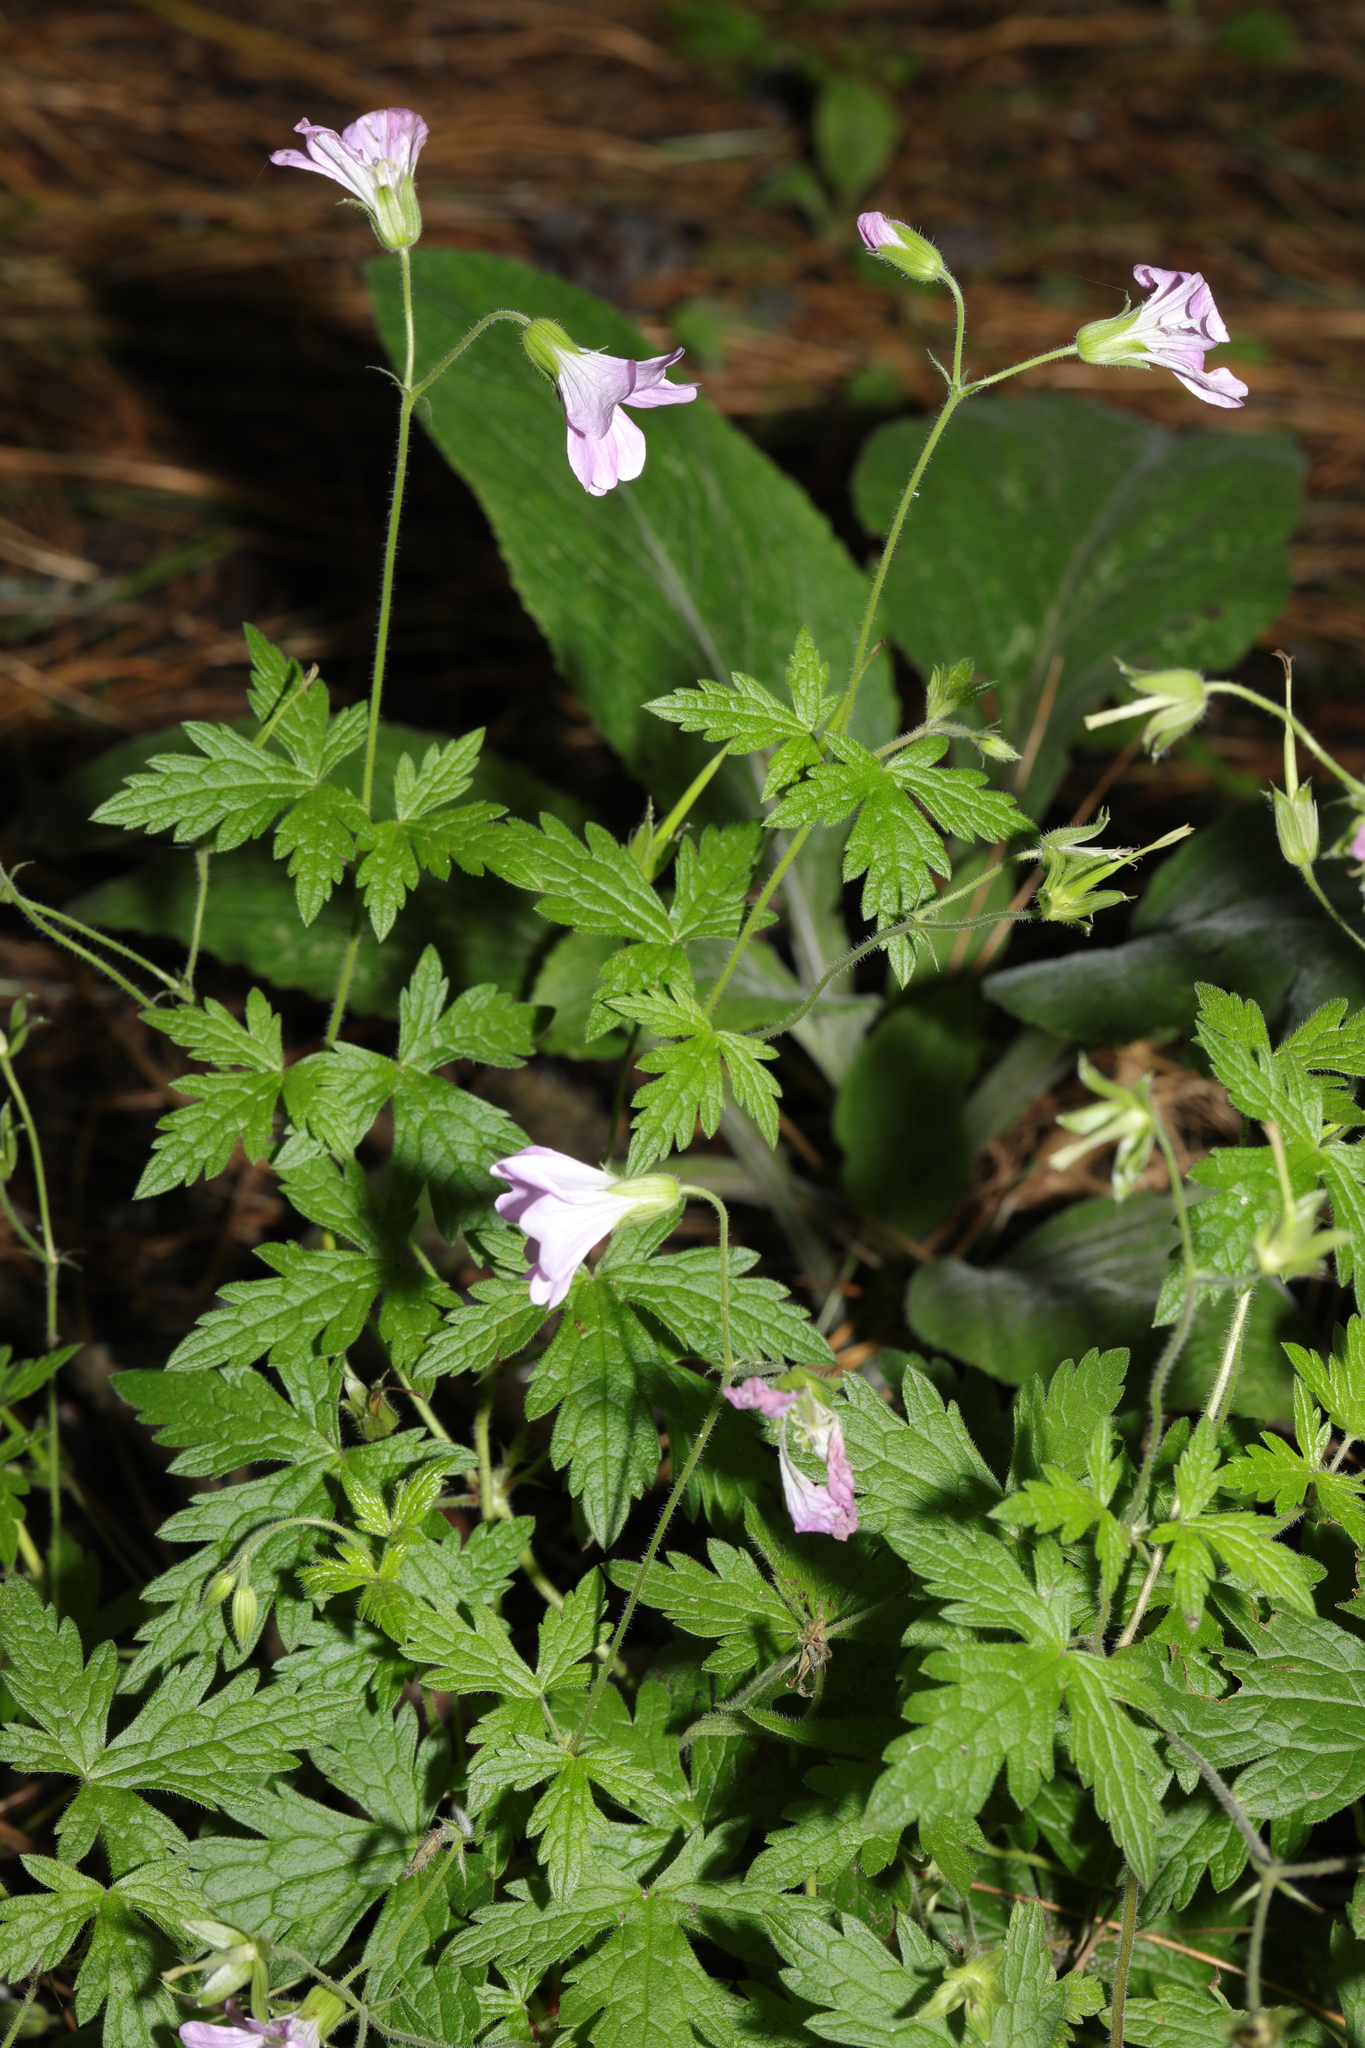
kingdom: Plantae
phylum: Tracheophyta
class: Magnoliopsida
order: Geraniales
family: Geraniaceae
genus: Geranium
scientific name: Geranium oxonianum
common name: Druce's crane's-bill
